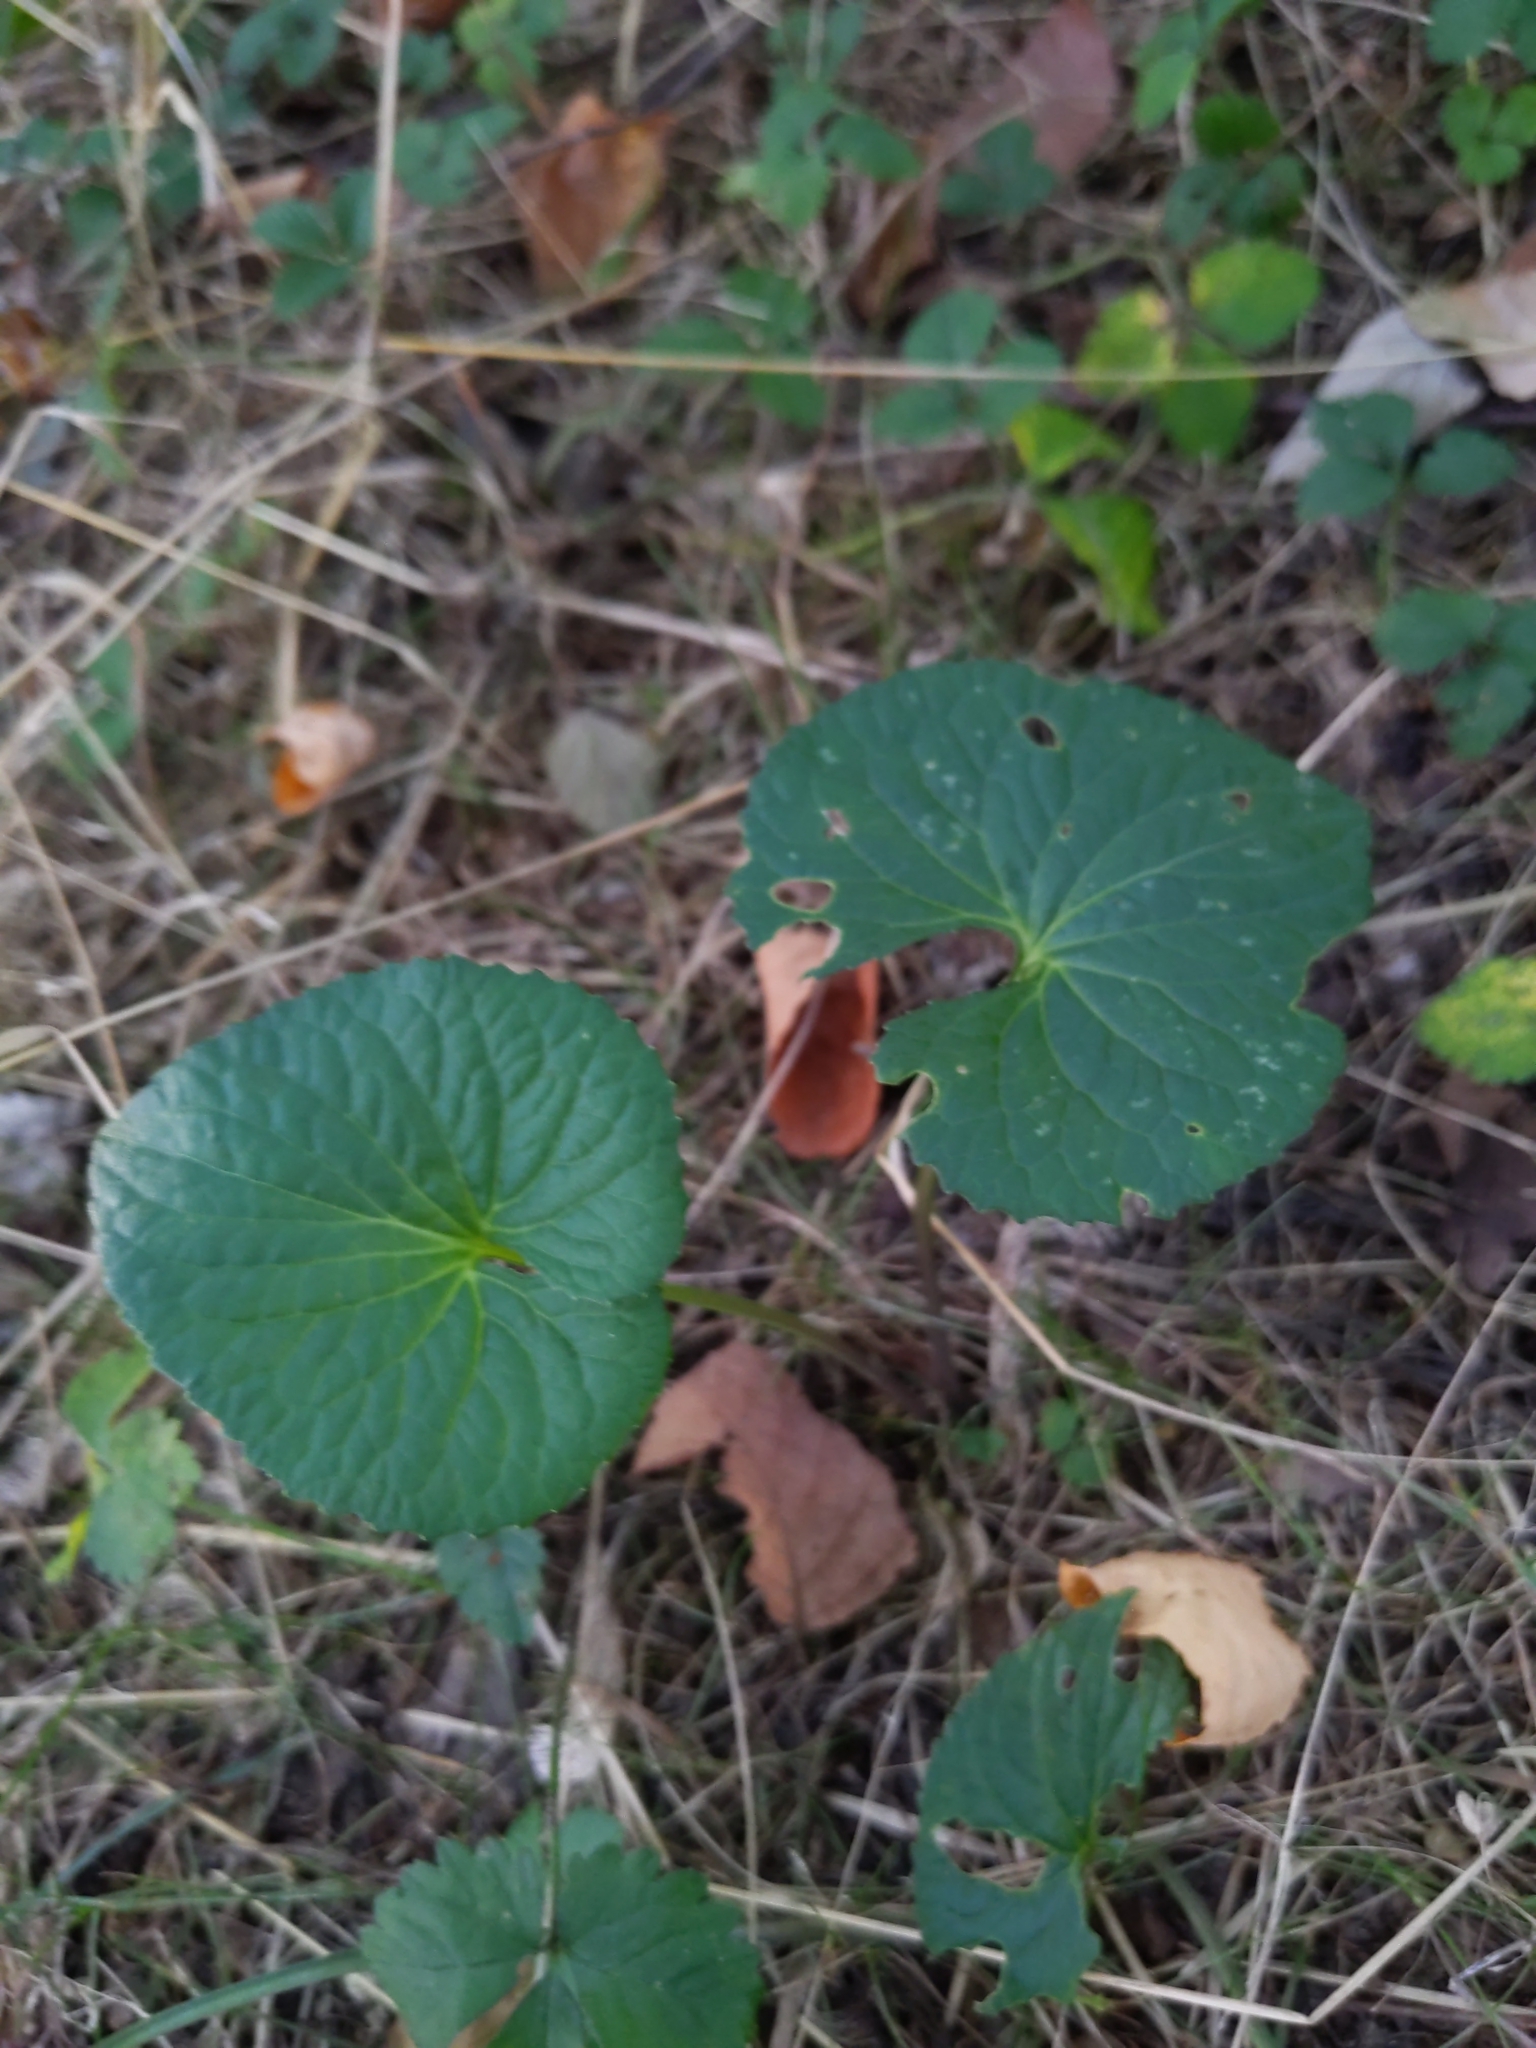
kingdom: Plantae
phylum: Tracheophyta
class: Magnoliopsida
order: Malpighiales
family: Violaceae
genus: Viola
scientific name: Viola
